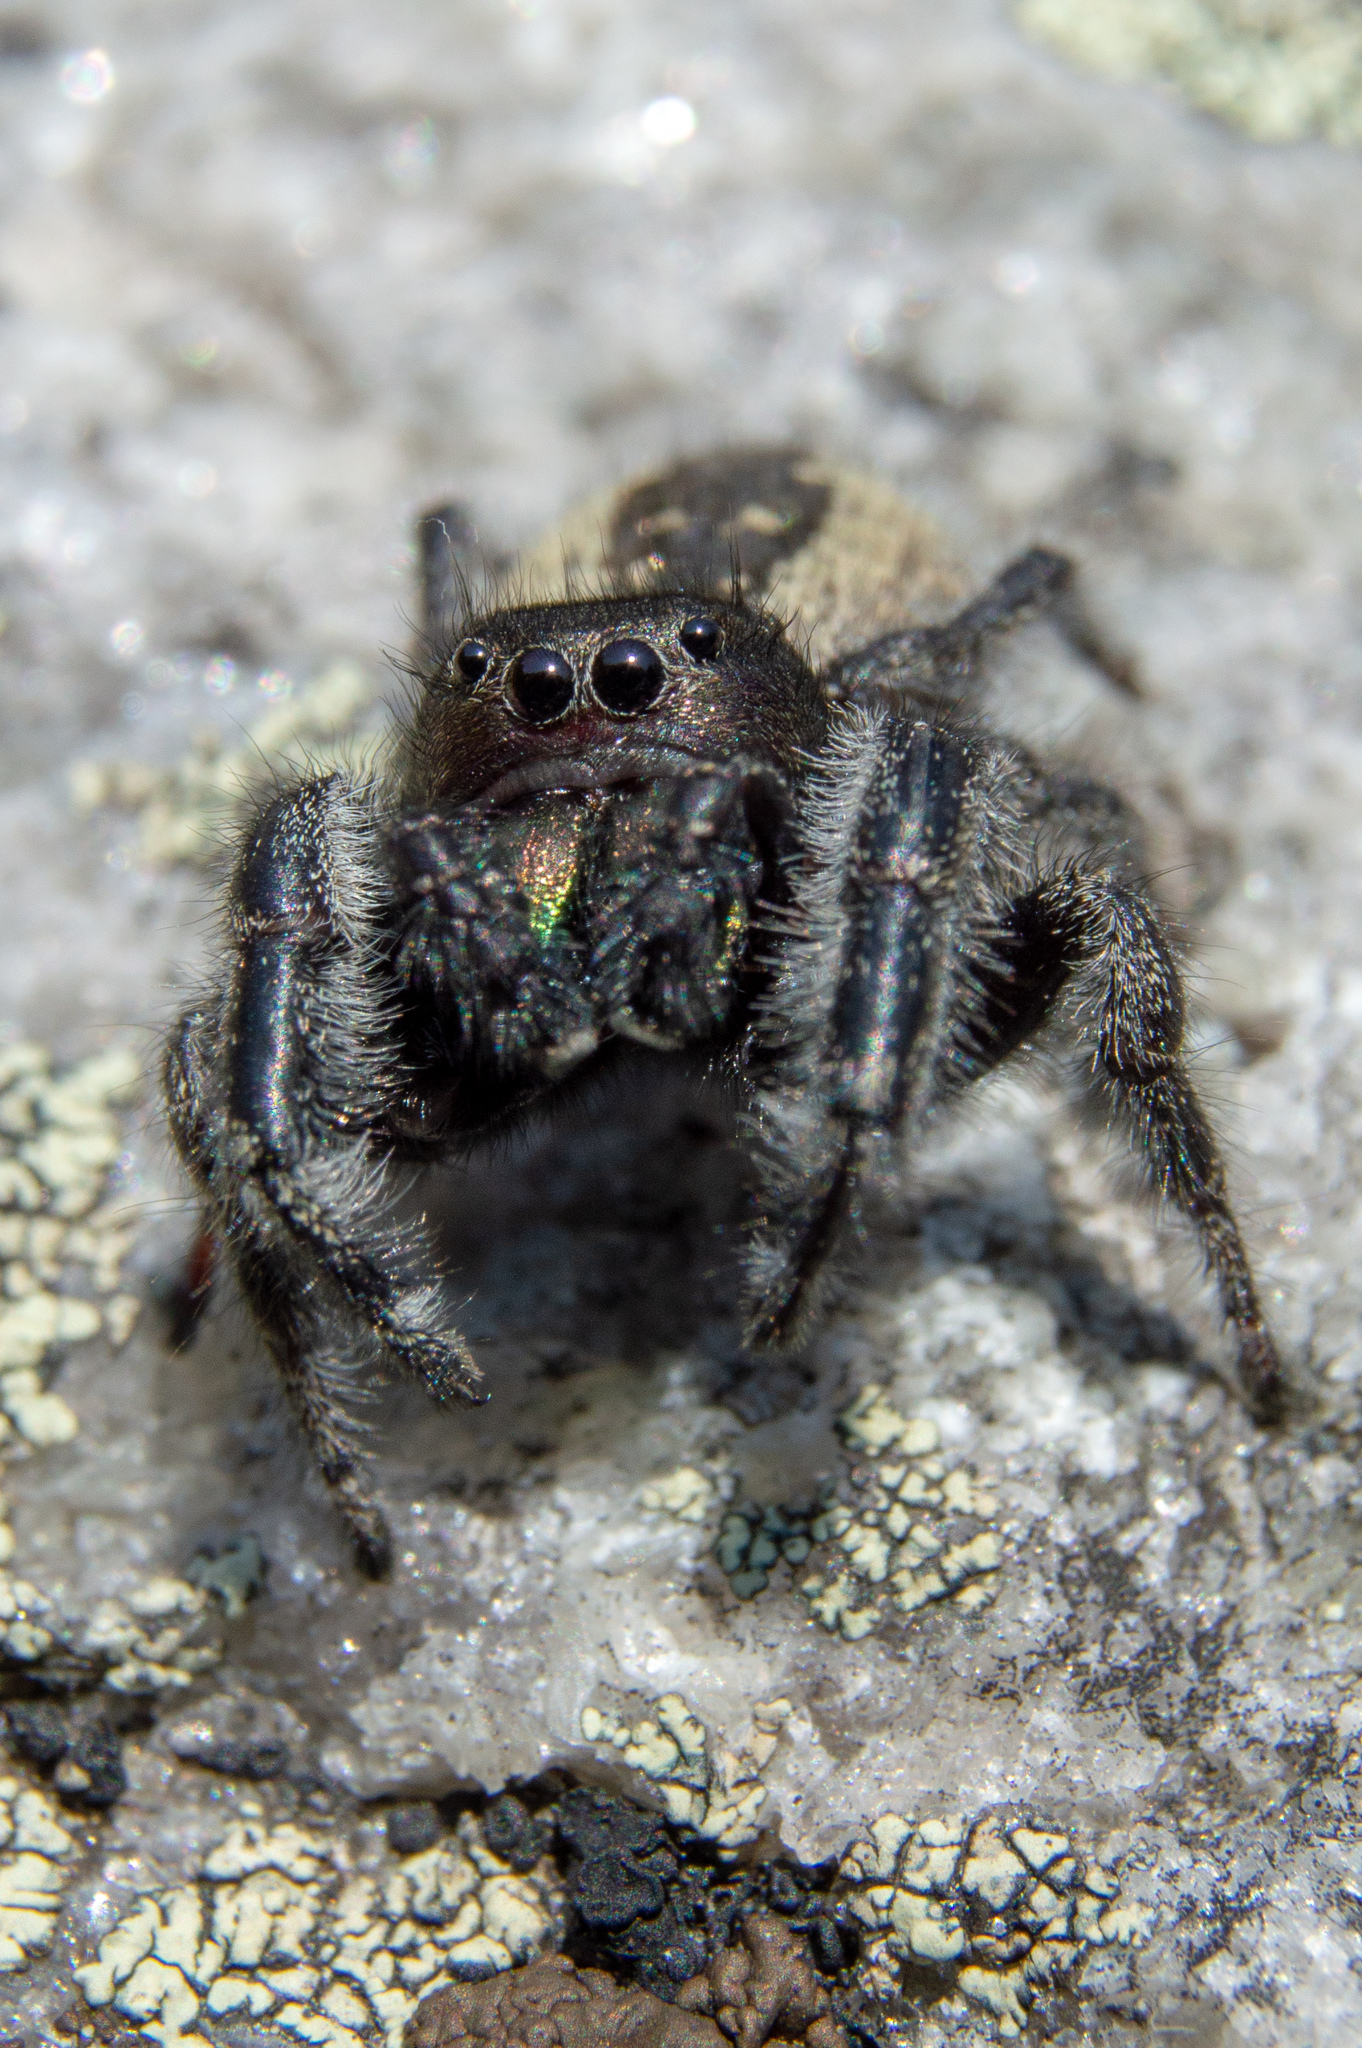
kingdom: Animalia
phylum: Arthropoda
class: Arachnida
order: Araneae
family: Salticidae
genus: Phidippus
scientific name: Phidippus purpuratus
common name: Marbled purple jumping spider
